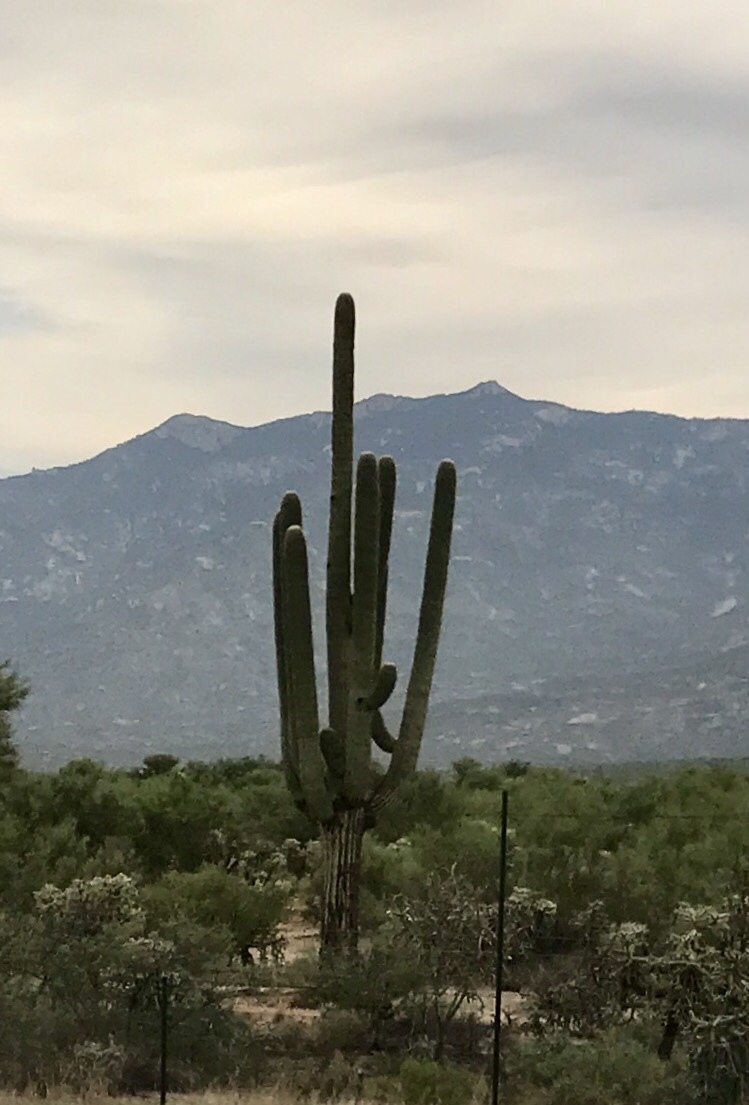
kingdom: Plantae
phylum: Tracheophyta
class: Magnoliopsida
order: Caryophyllales
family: Cactaceae
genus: Carnegiea
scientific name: Carnegiea gigantea
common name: Saguaro
